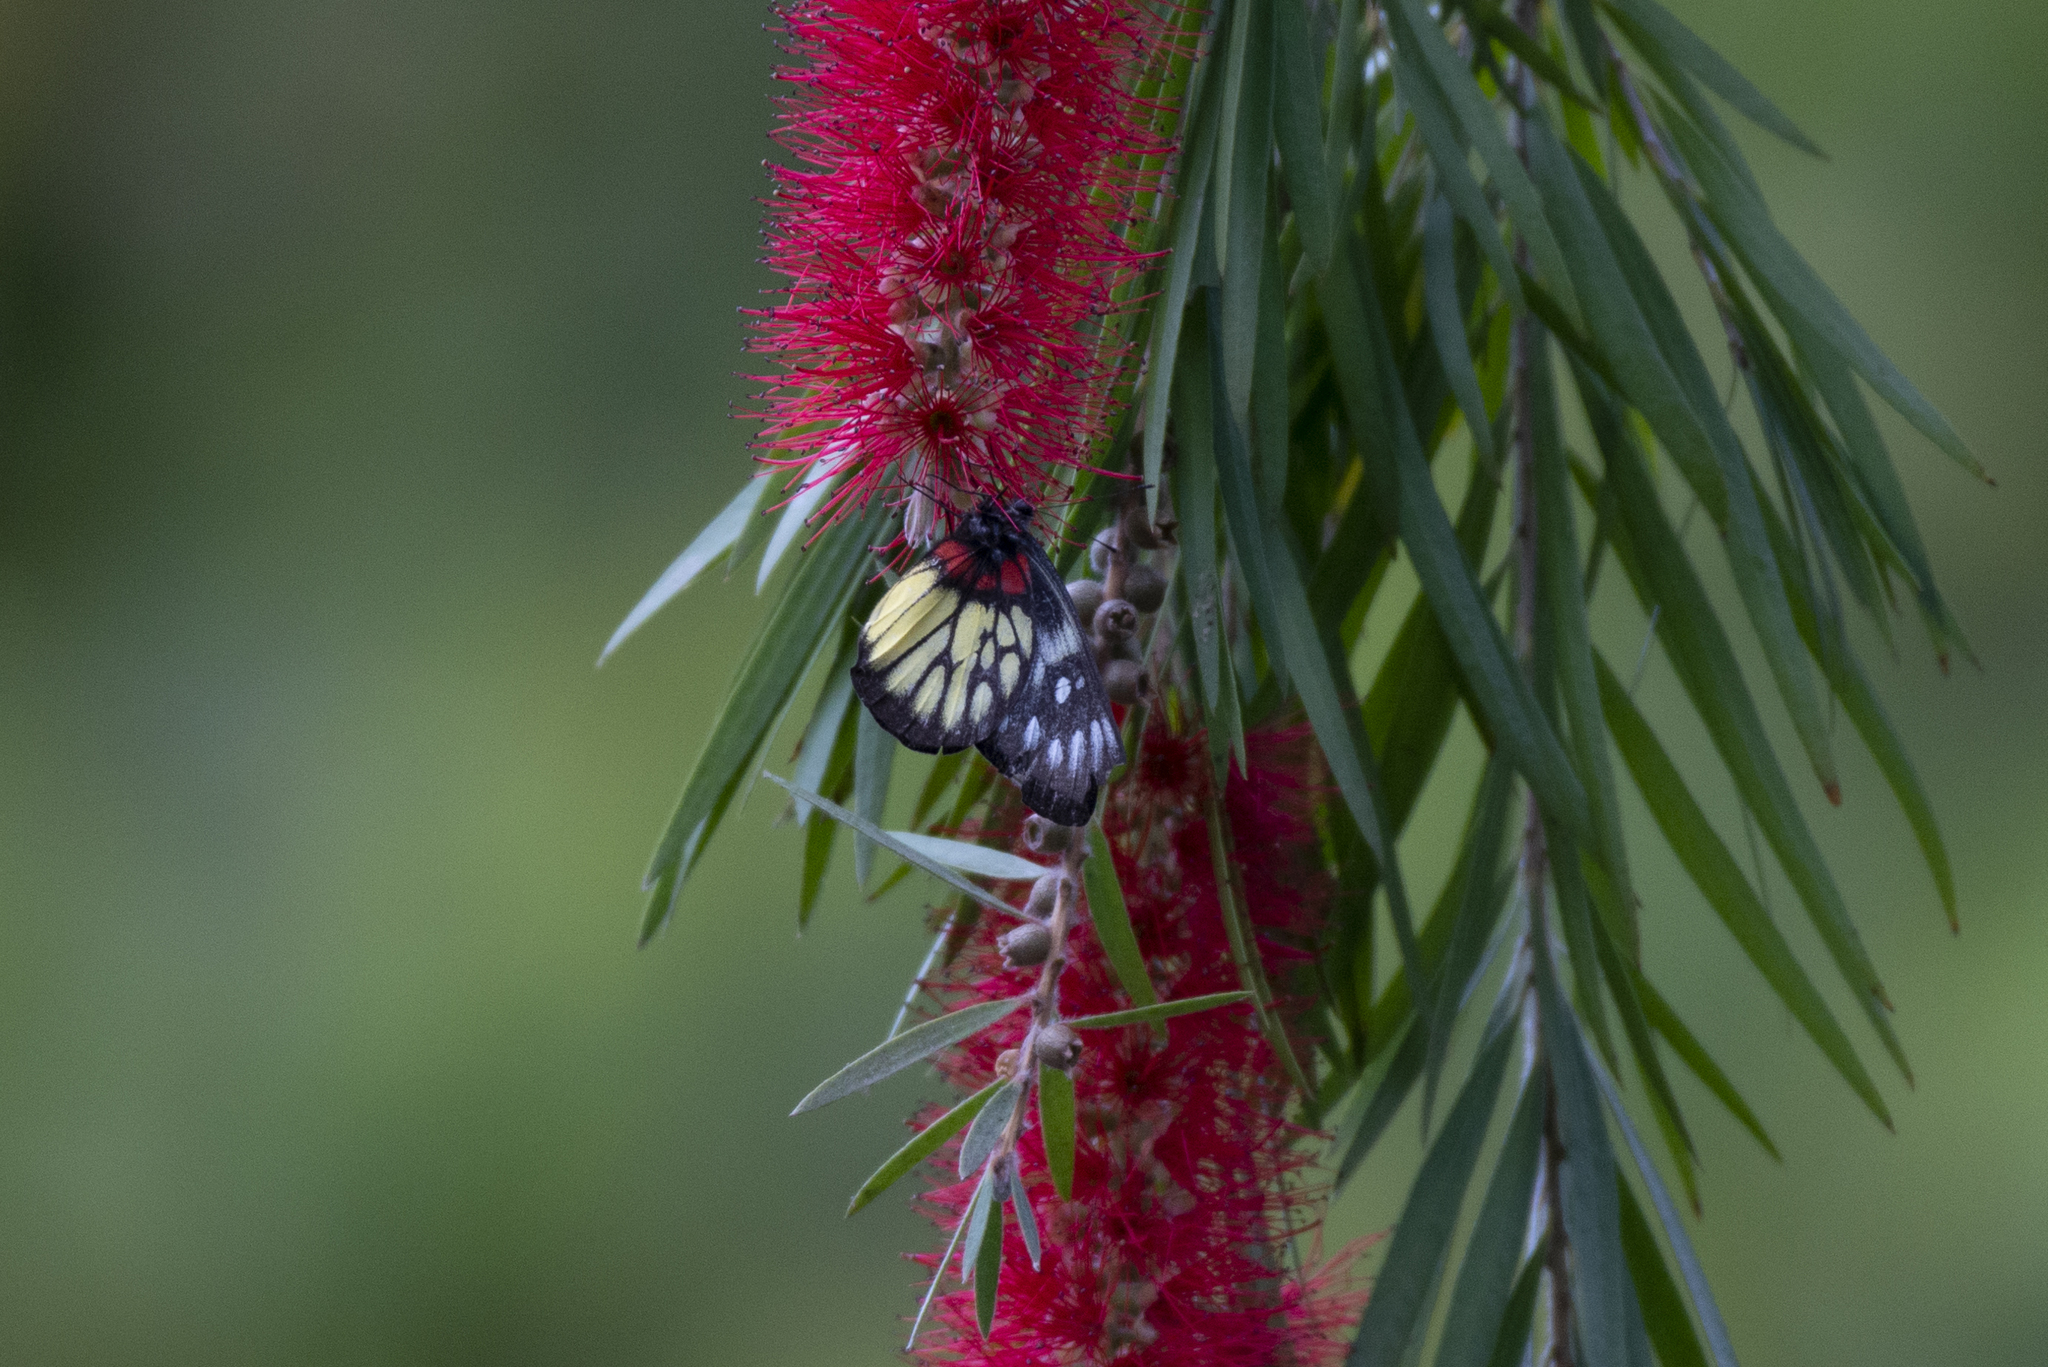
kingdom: Animalia
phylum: Arthropoda
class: Insecta
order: Lepidoptera
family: Pieridae
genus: Delias
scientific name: Delias pasithoe
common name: Red-base jezebel
